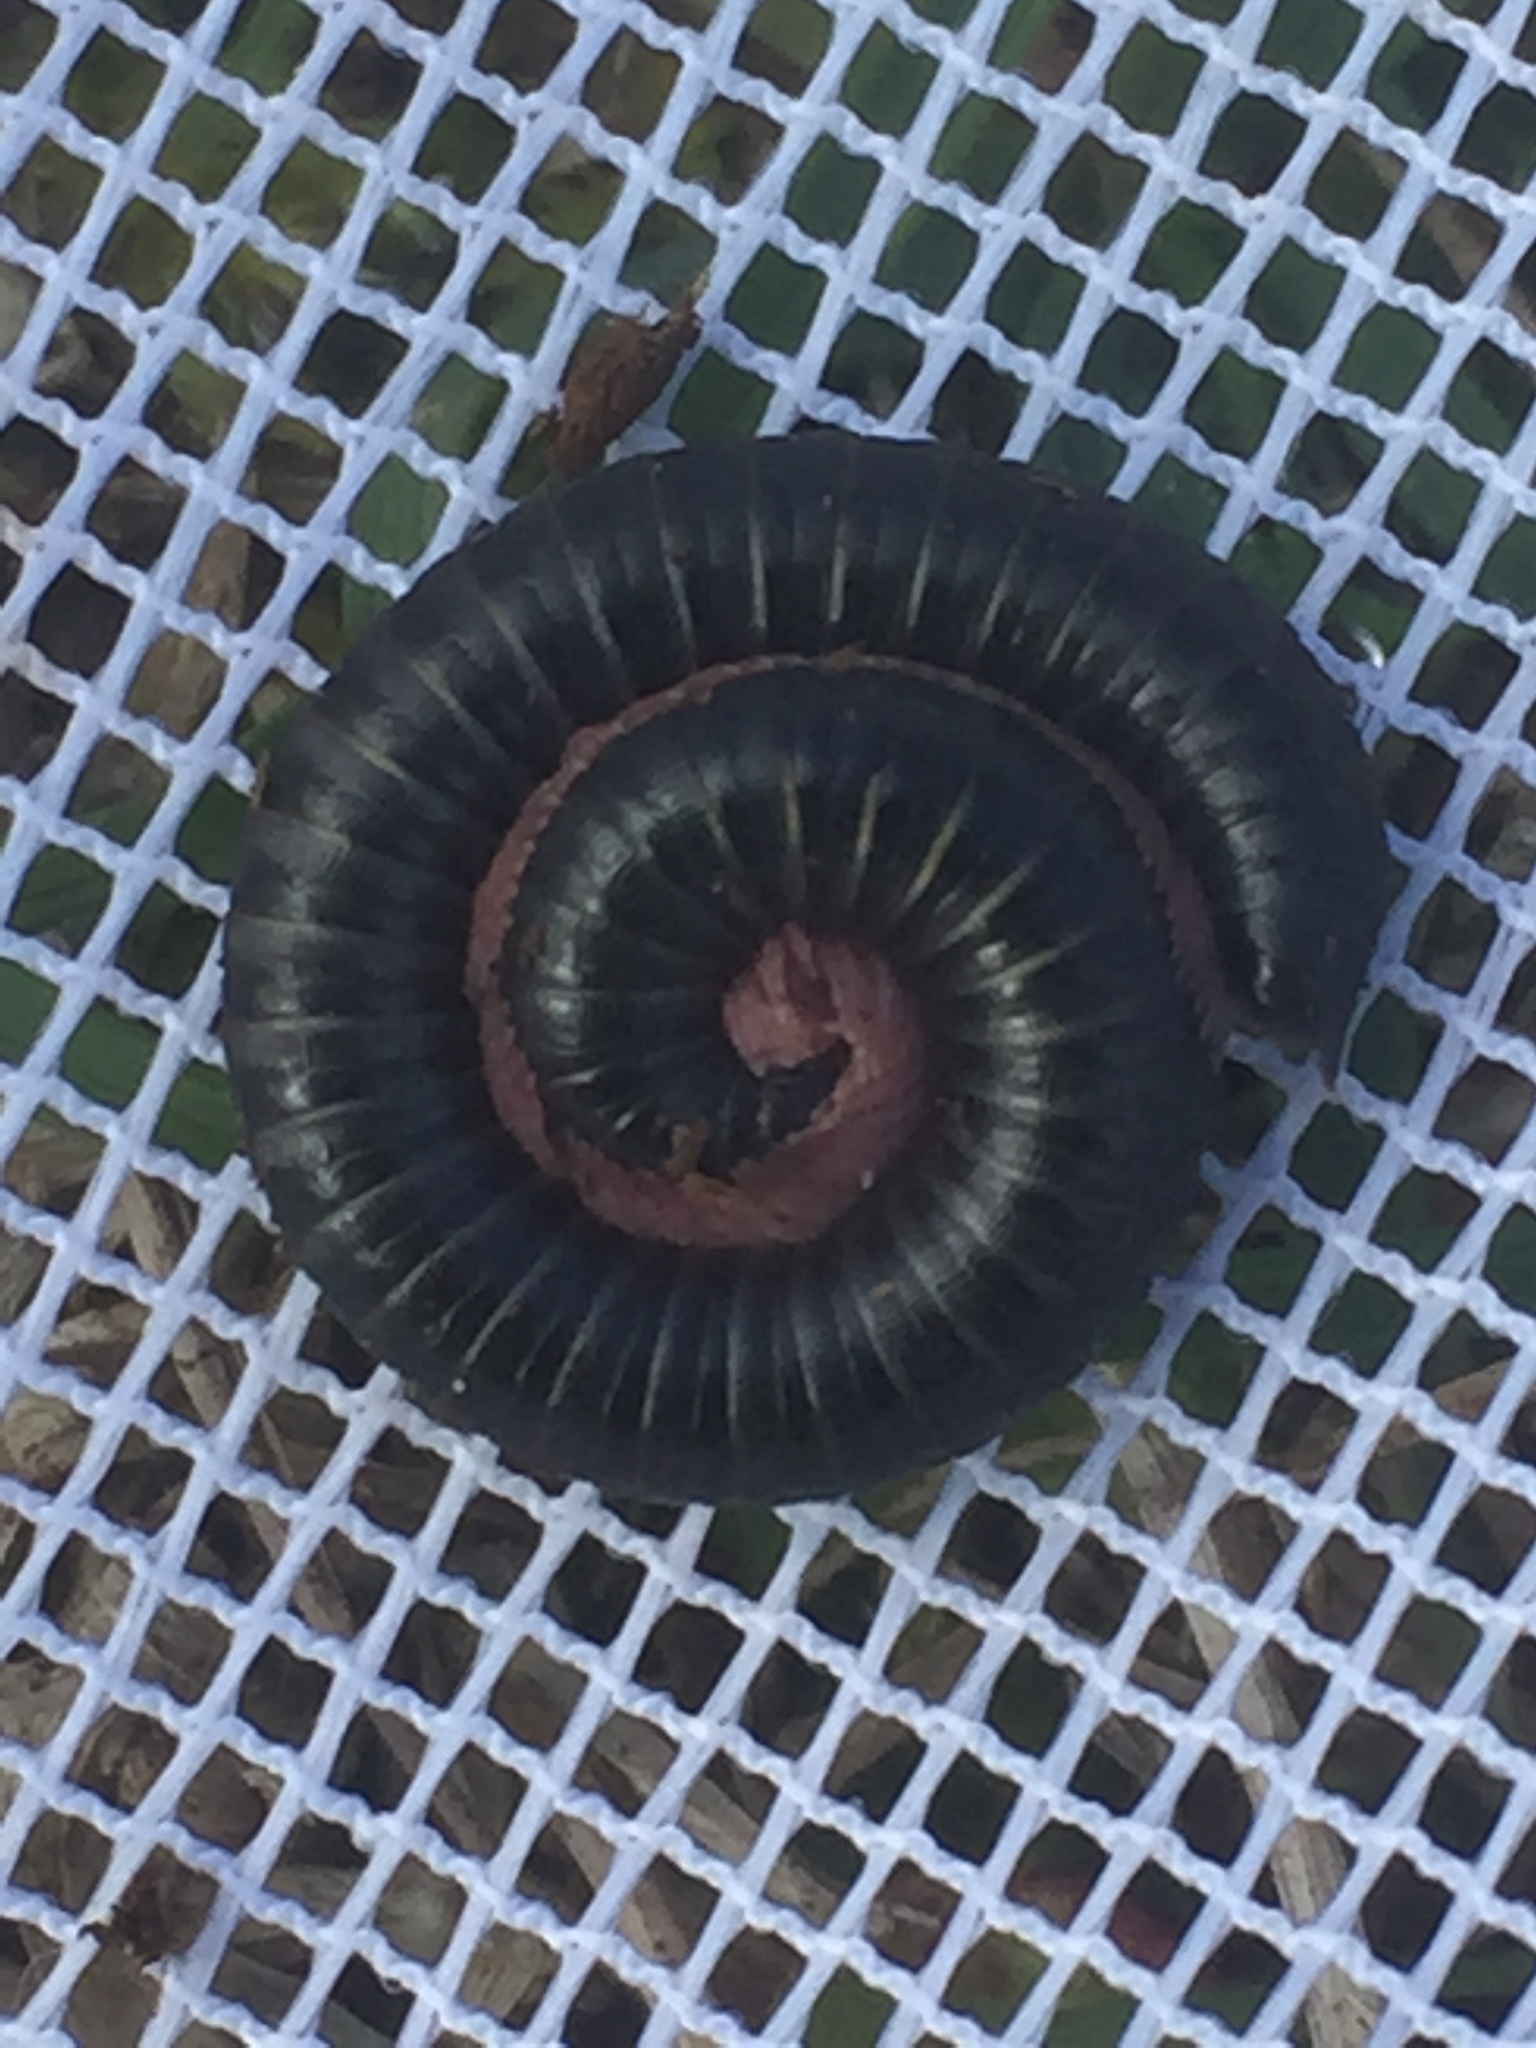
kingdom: Animalia
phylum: Arthropoda
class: Diplopoda
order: Julida
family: Julidae
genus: Ommatoiulus
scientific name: Ommatoiulus moreleti
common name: Portuguese millipede
